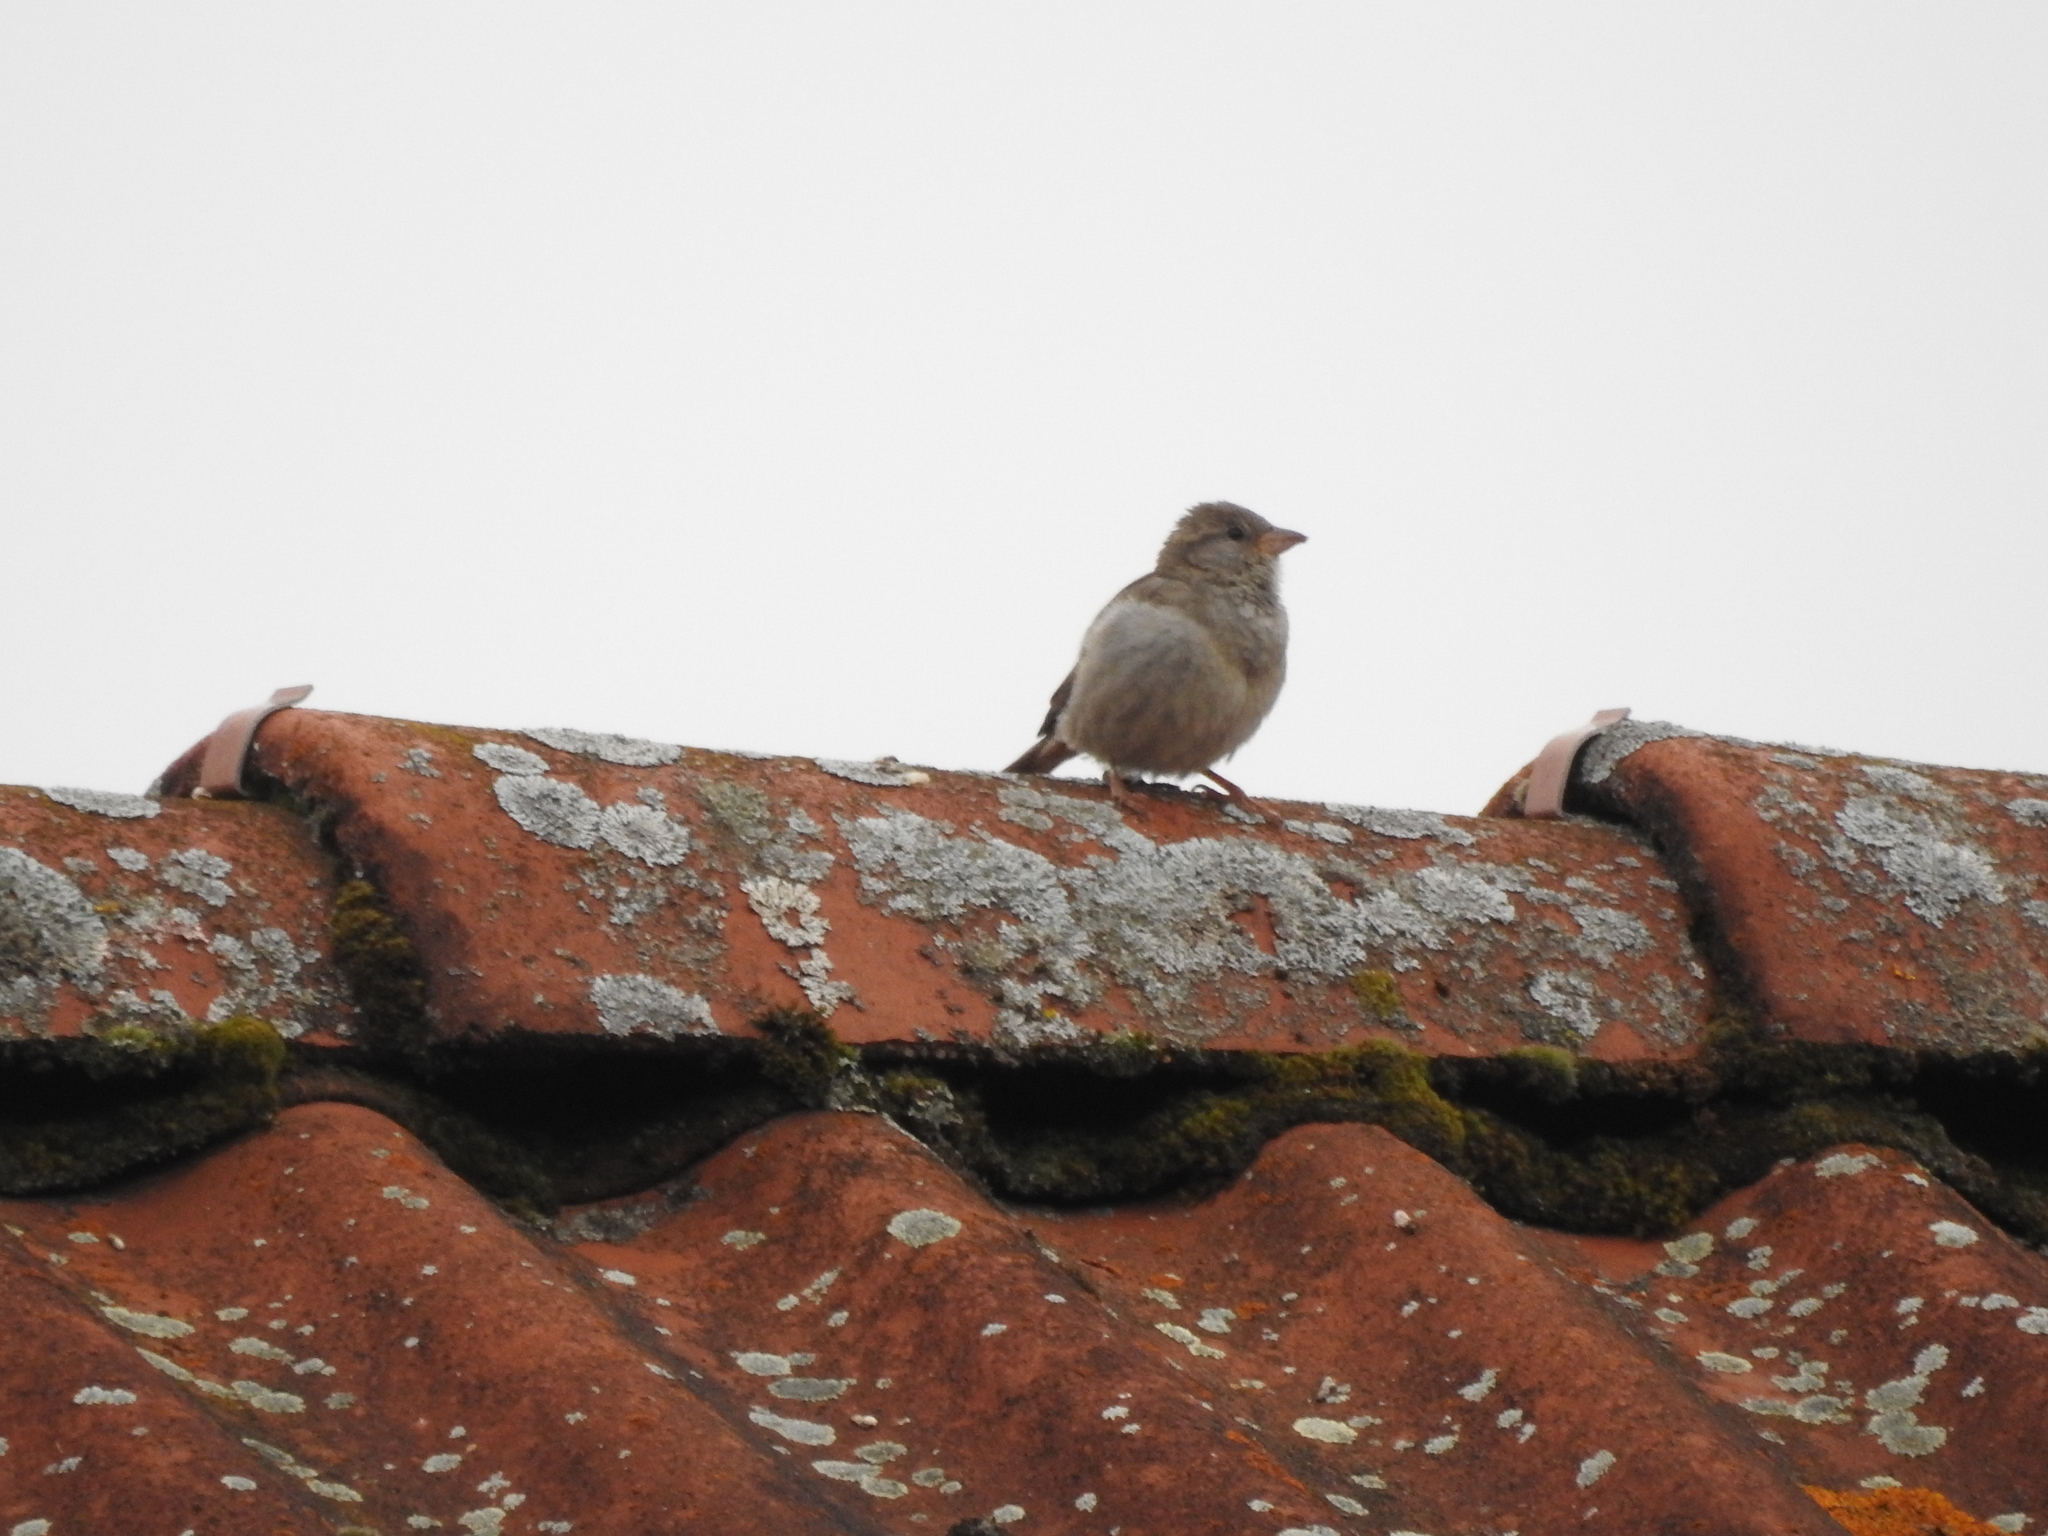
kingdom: Animalia
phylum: Chordata
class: Aves
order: Passeriformes
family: Passeridae
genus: Passer
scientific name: Passer domesticus
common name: House sparrow
